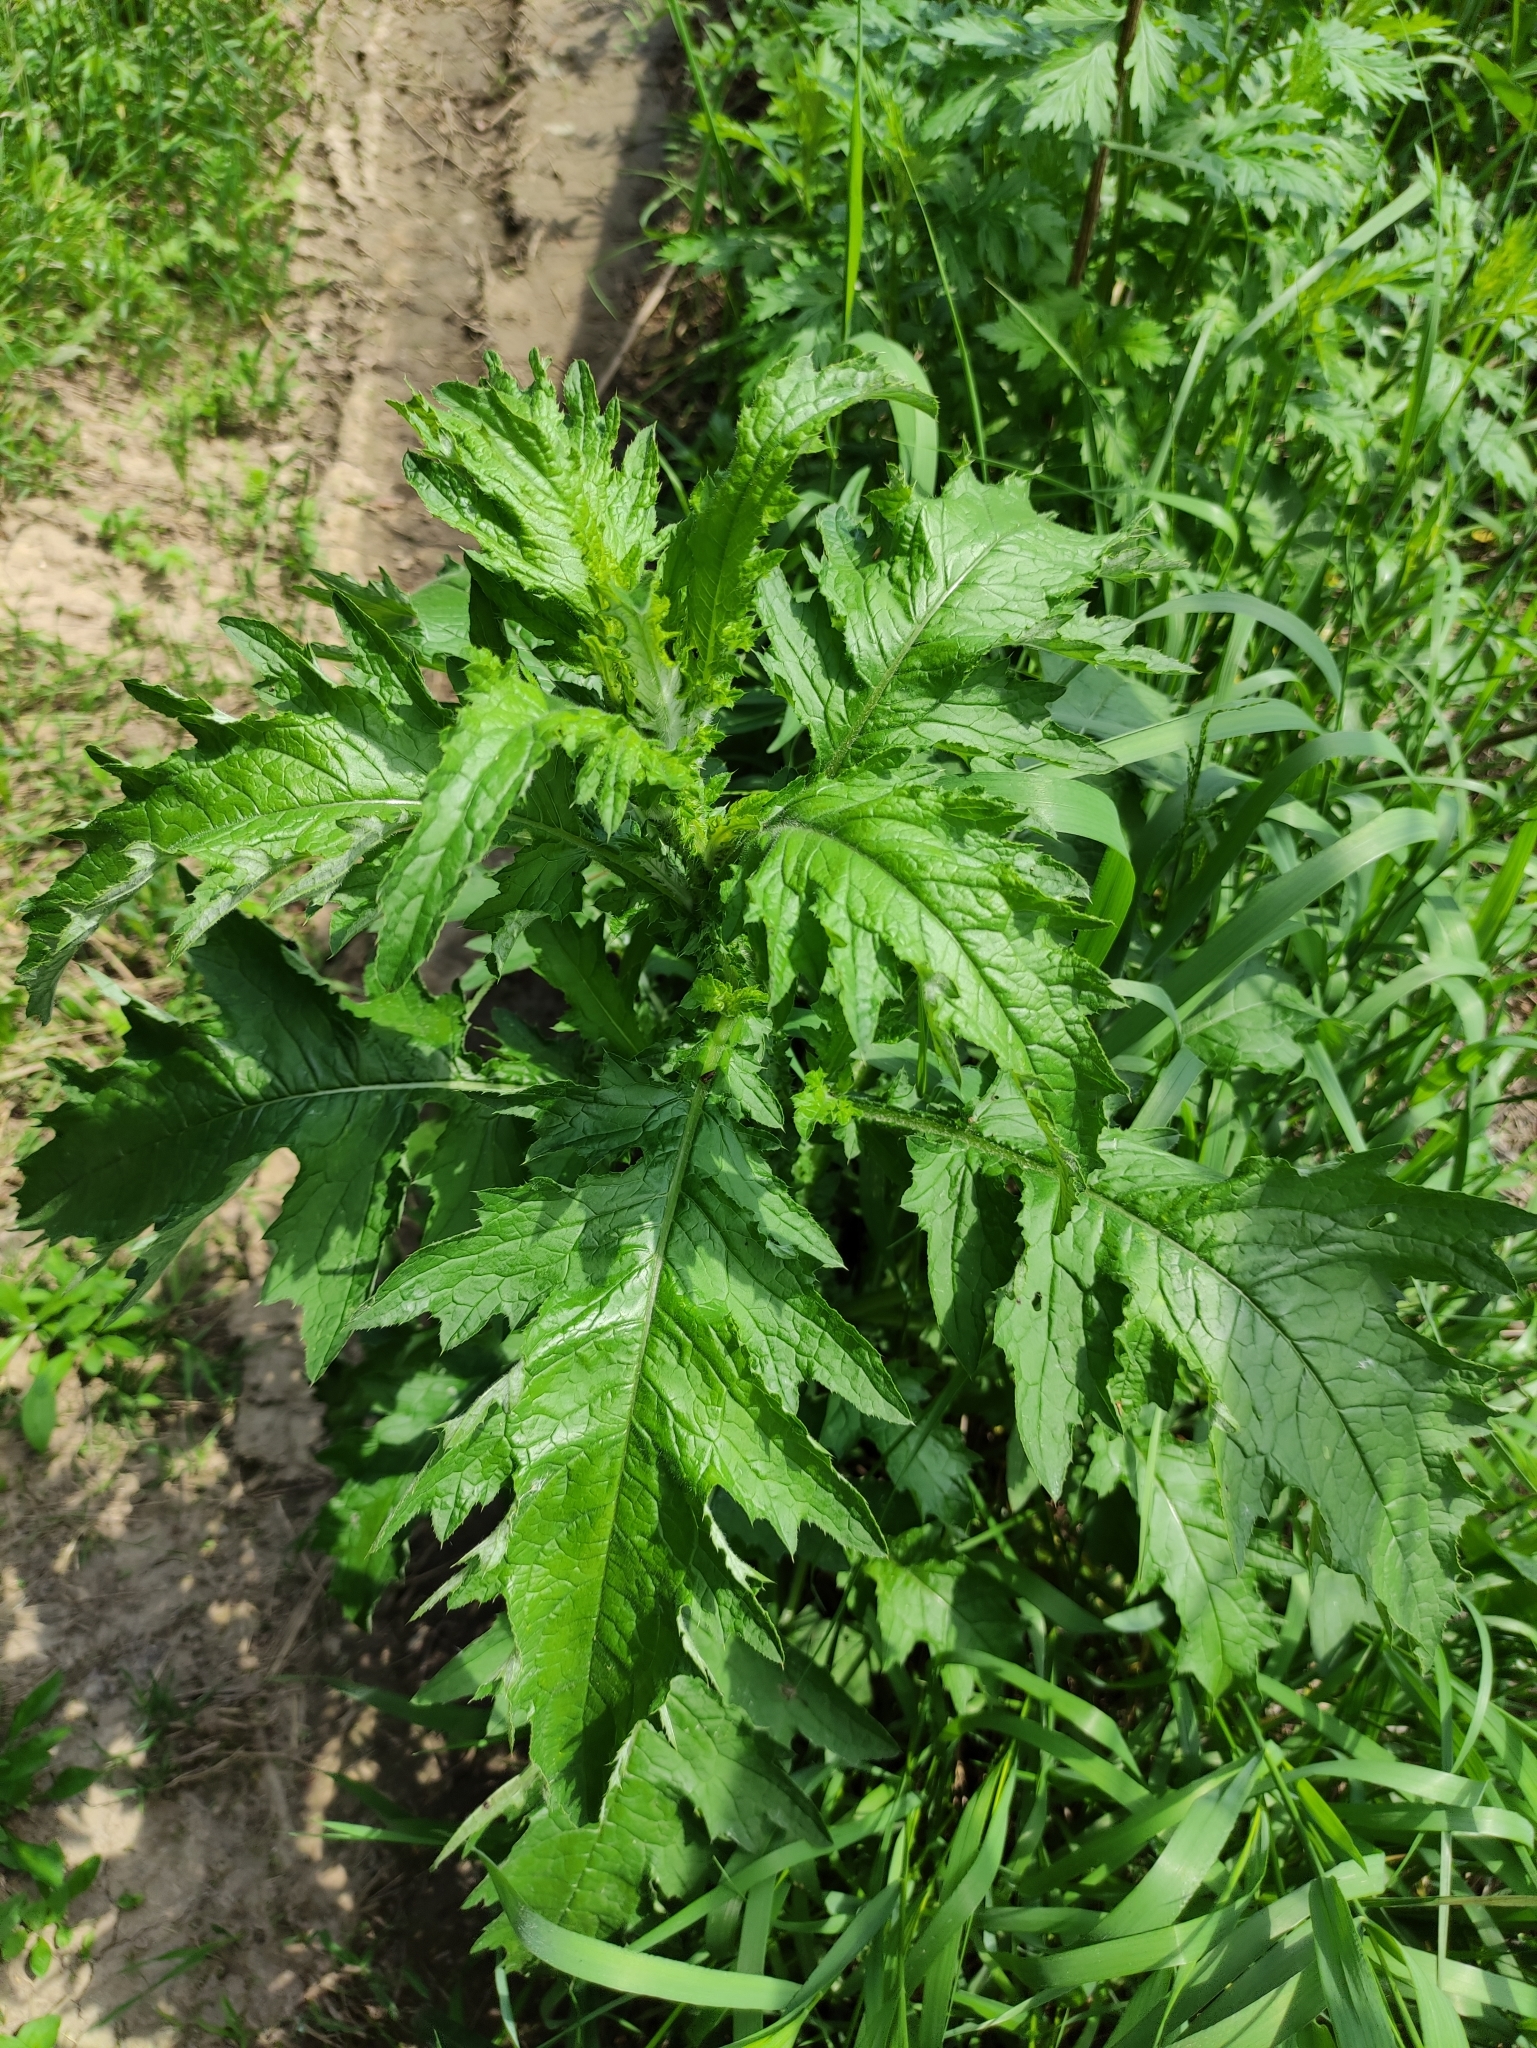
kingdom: Plantae
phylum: Tracheophyta
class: Magnoliopsida
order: Asterales
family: Asteraceae
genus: Carduus
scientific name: Carduus crispus
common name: Welted thistle
